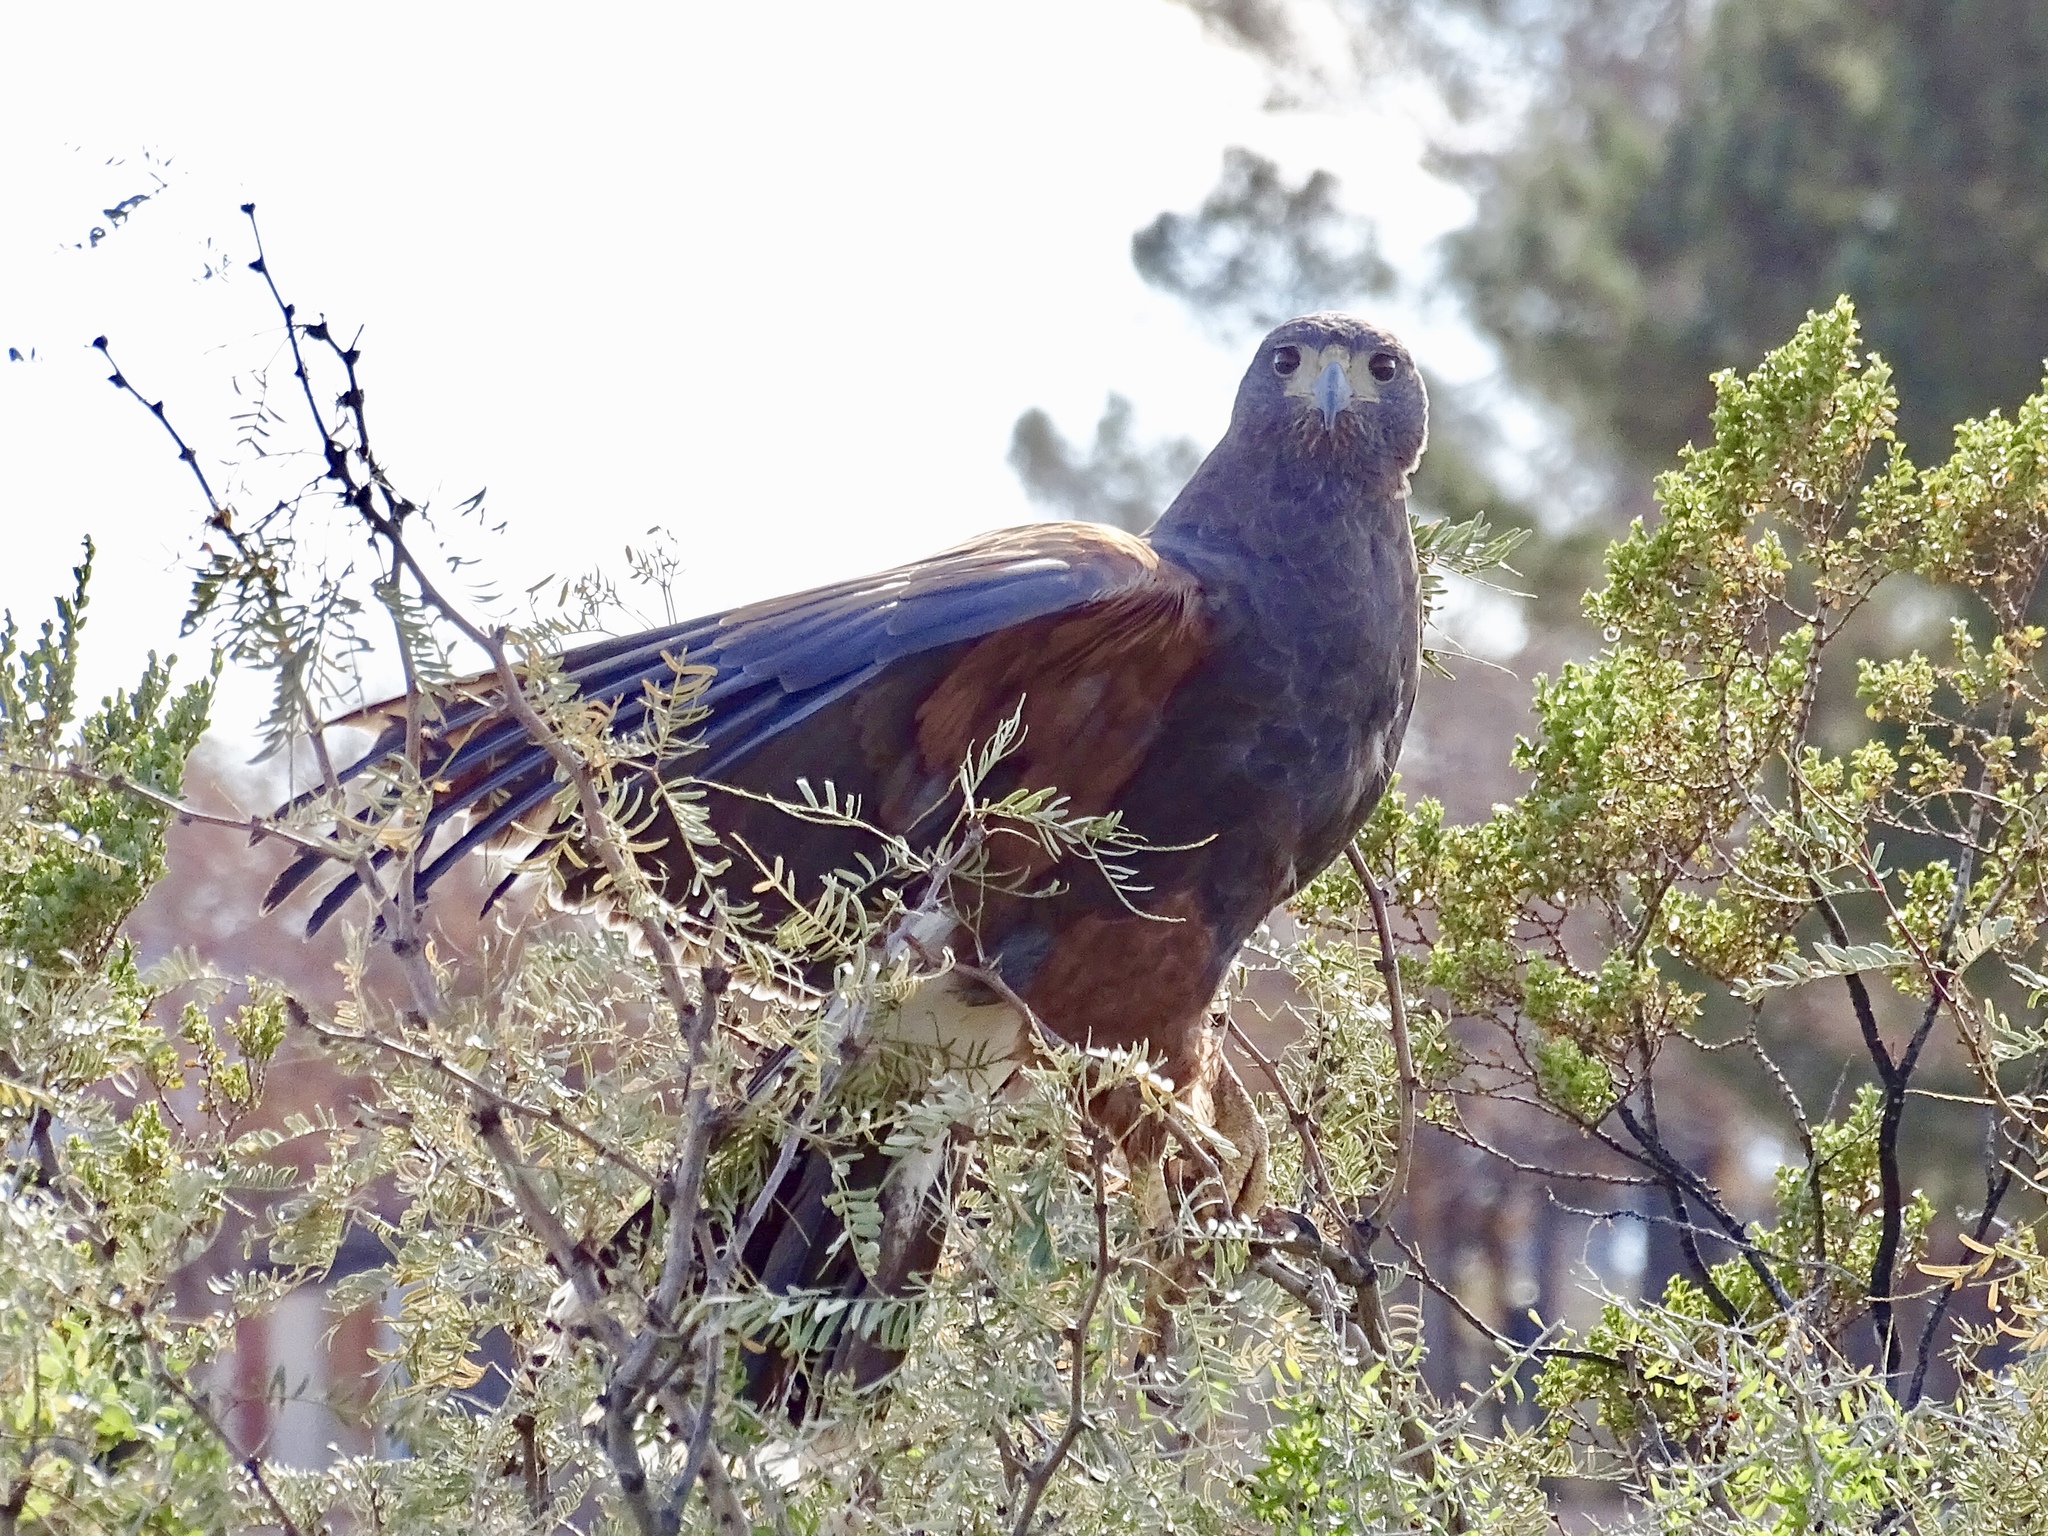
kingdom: Animalia
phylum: Chordata
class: Aves
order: Accipitriformes
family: Accipitridae
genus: Parabuteo
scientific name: Parabuteo unicinctus
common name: Harris's hawk
